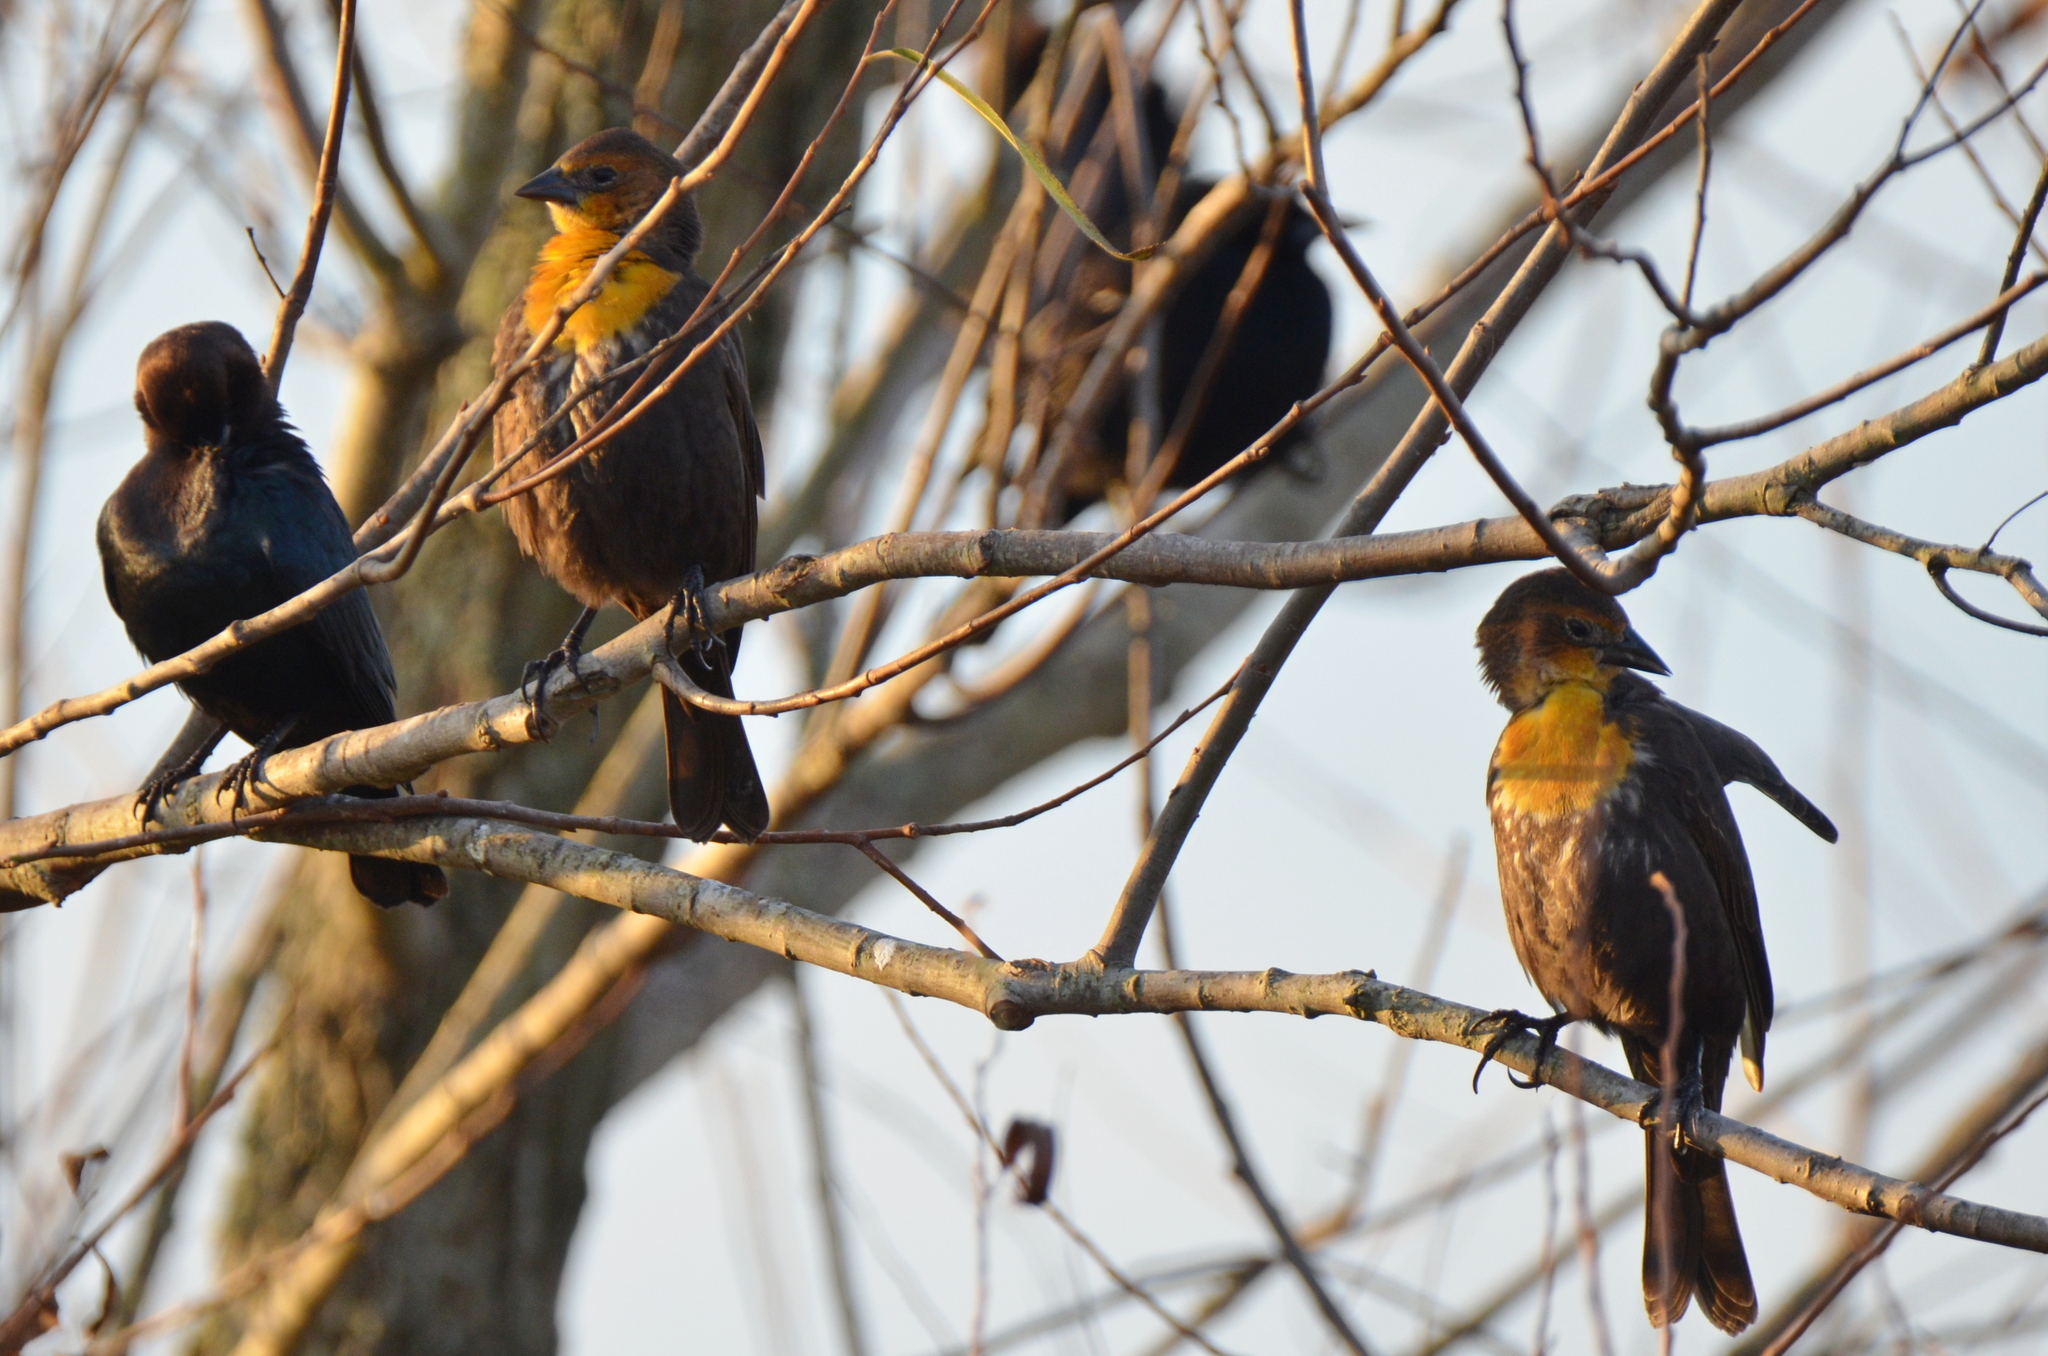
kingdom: Animalia
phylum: Chordata
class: Aves
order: Passeriformes
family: Icteridae
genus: Xanthocephalus
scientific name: Xanthocephalus xanthocephalus
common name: Yellow-headed blackbird
